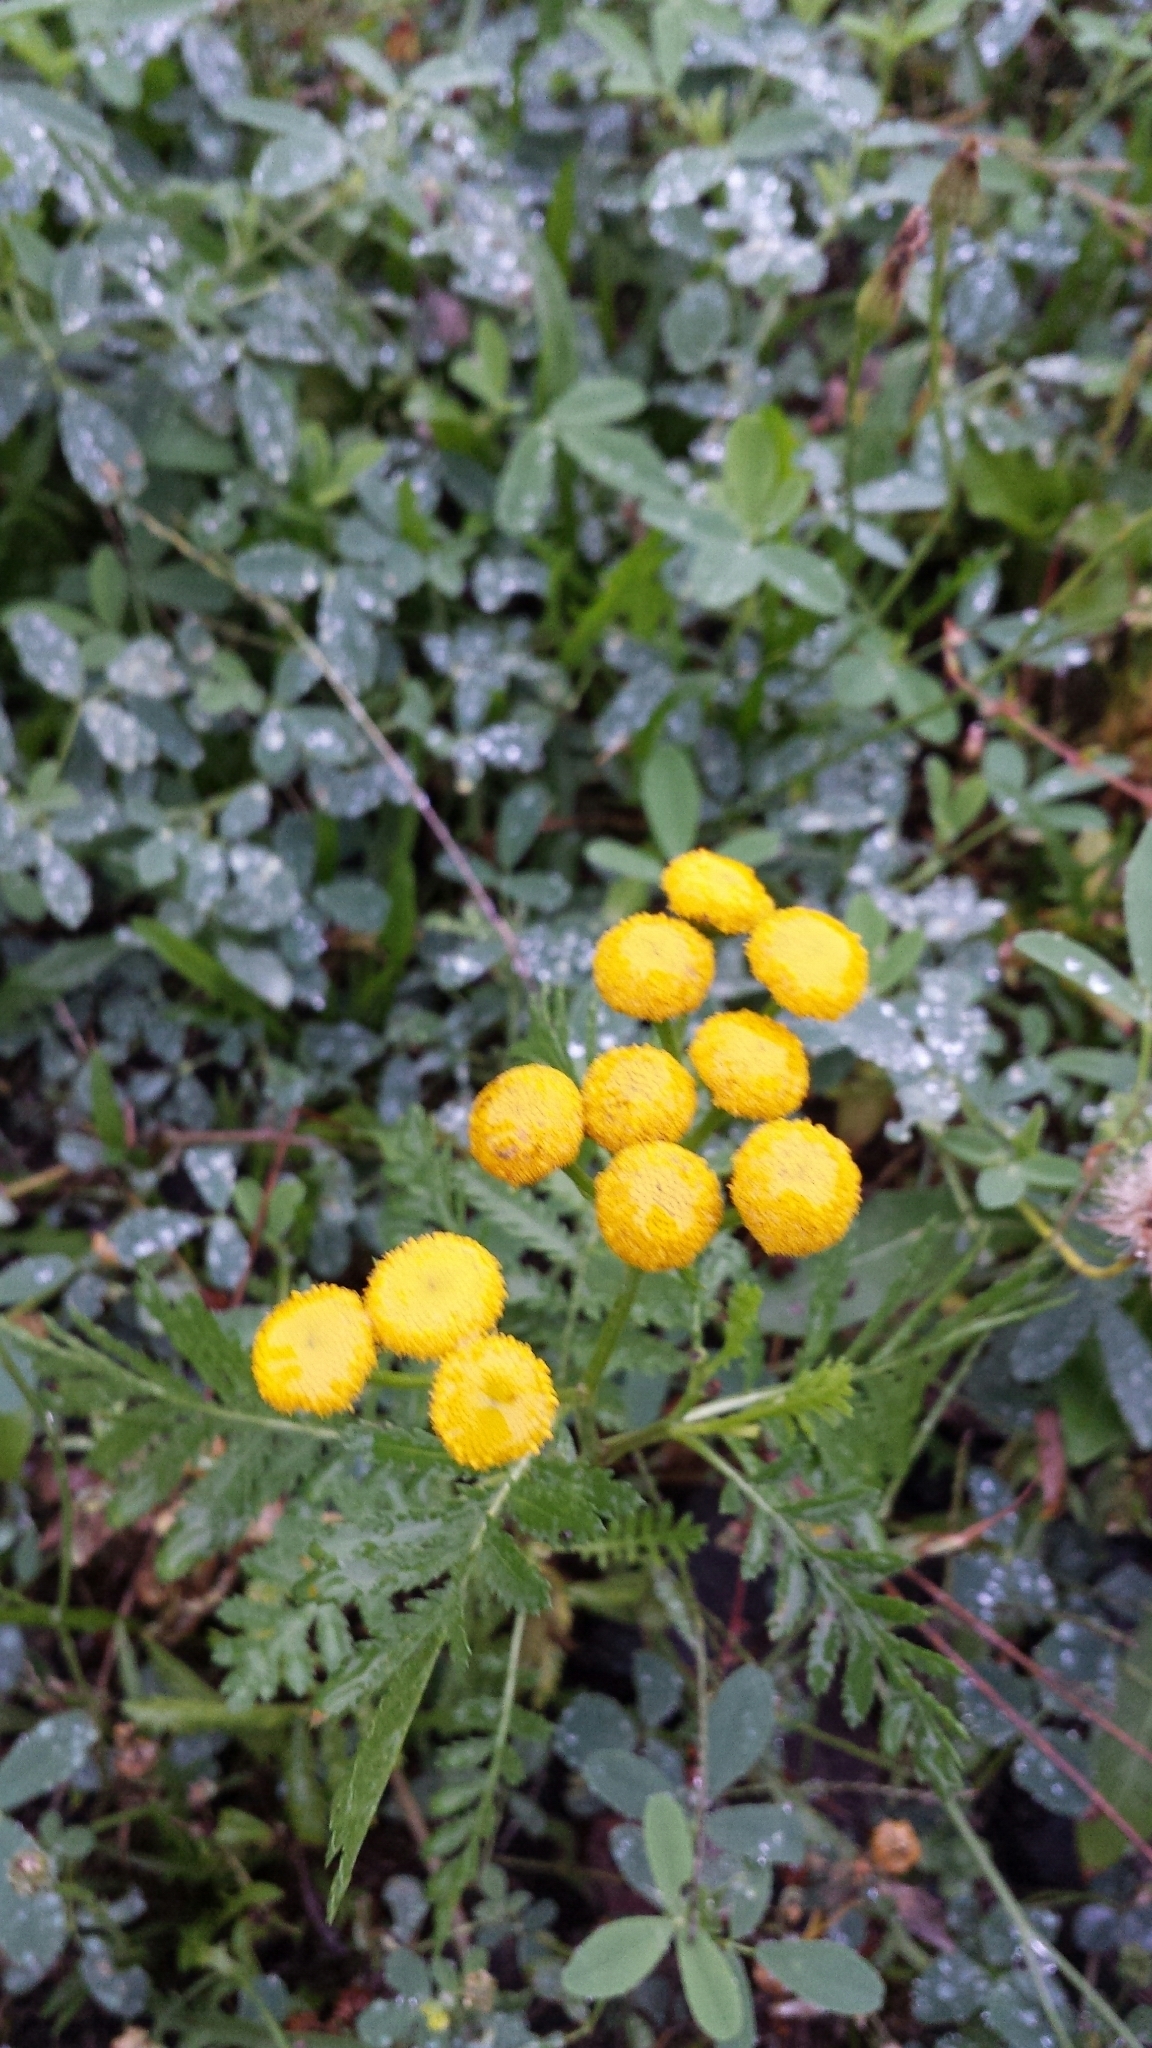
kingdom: Plantae
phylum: Tracheophyta
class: Magnoliopsida
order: Asterales
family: Asteraceae
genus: Tanacetum
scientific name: Tanacetum vulgare
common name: Common tansy
